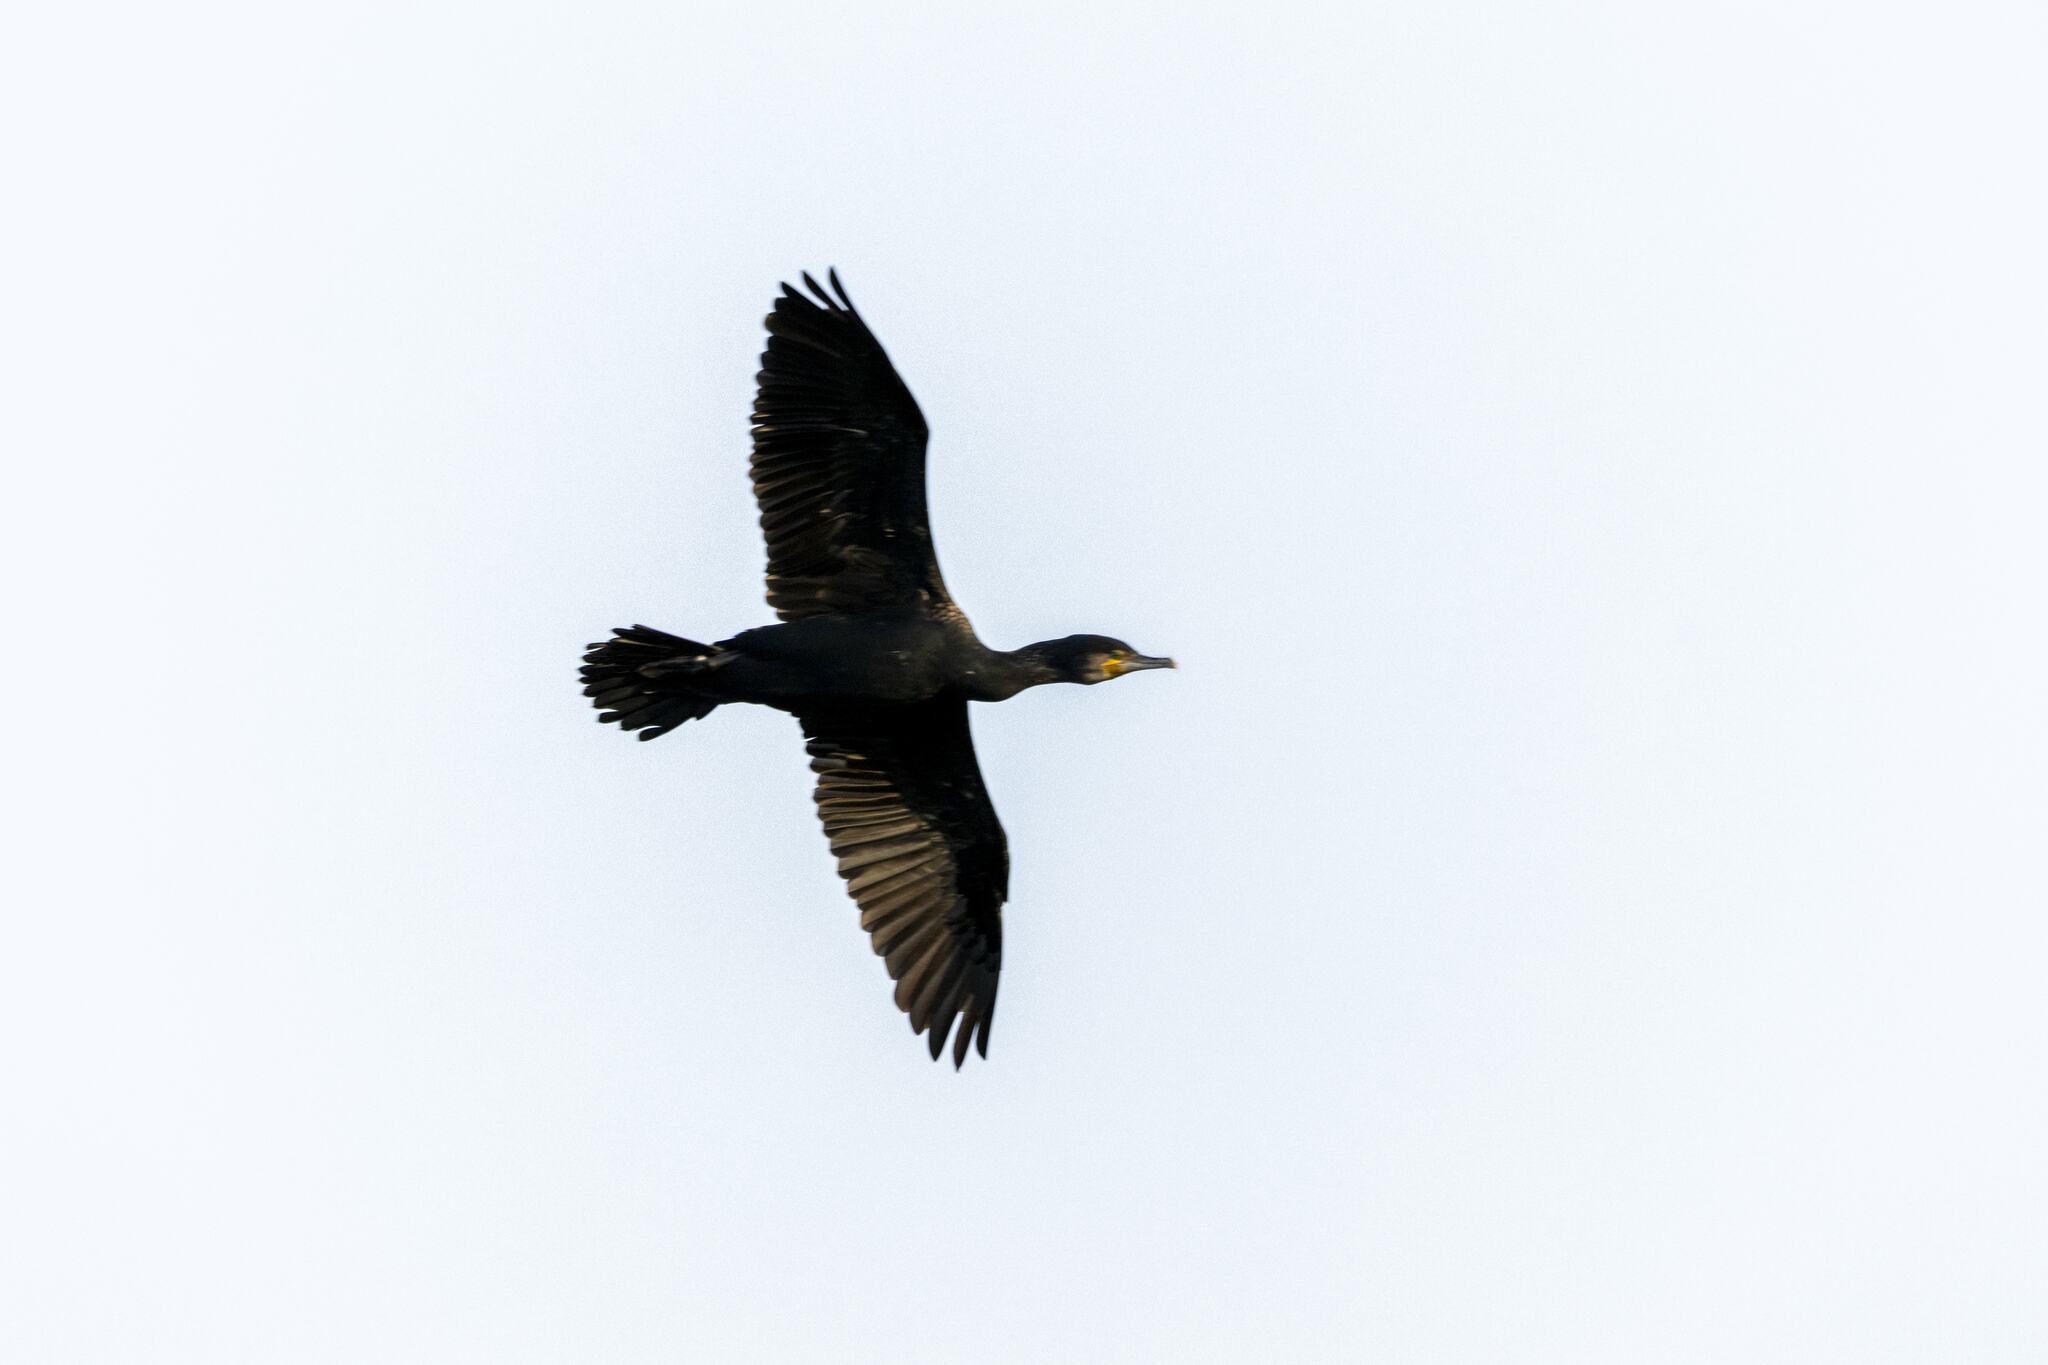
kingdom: Animalia
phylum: Chordata
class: Aves
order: Suliformes
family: Phalacrocoracidae
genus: Phalacrocorax
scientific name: Phalacrocorax carbo
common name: Great cormorant
